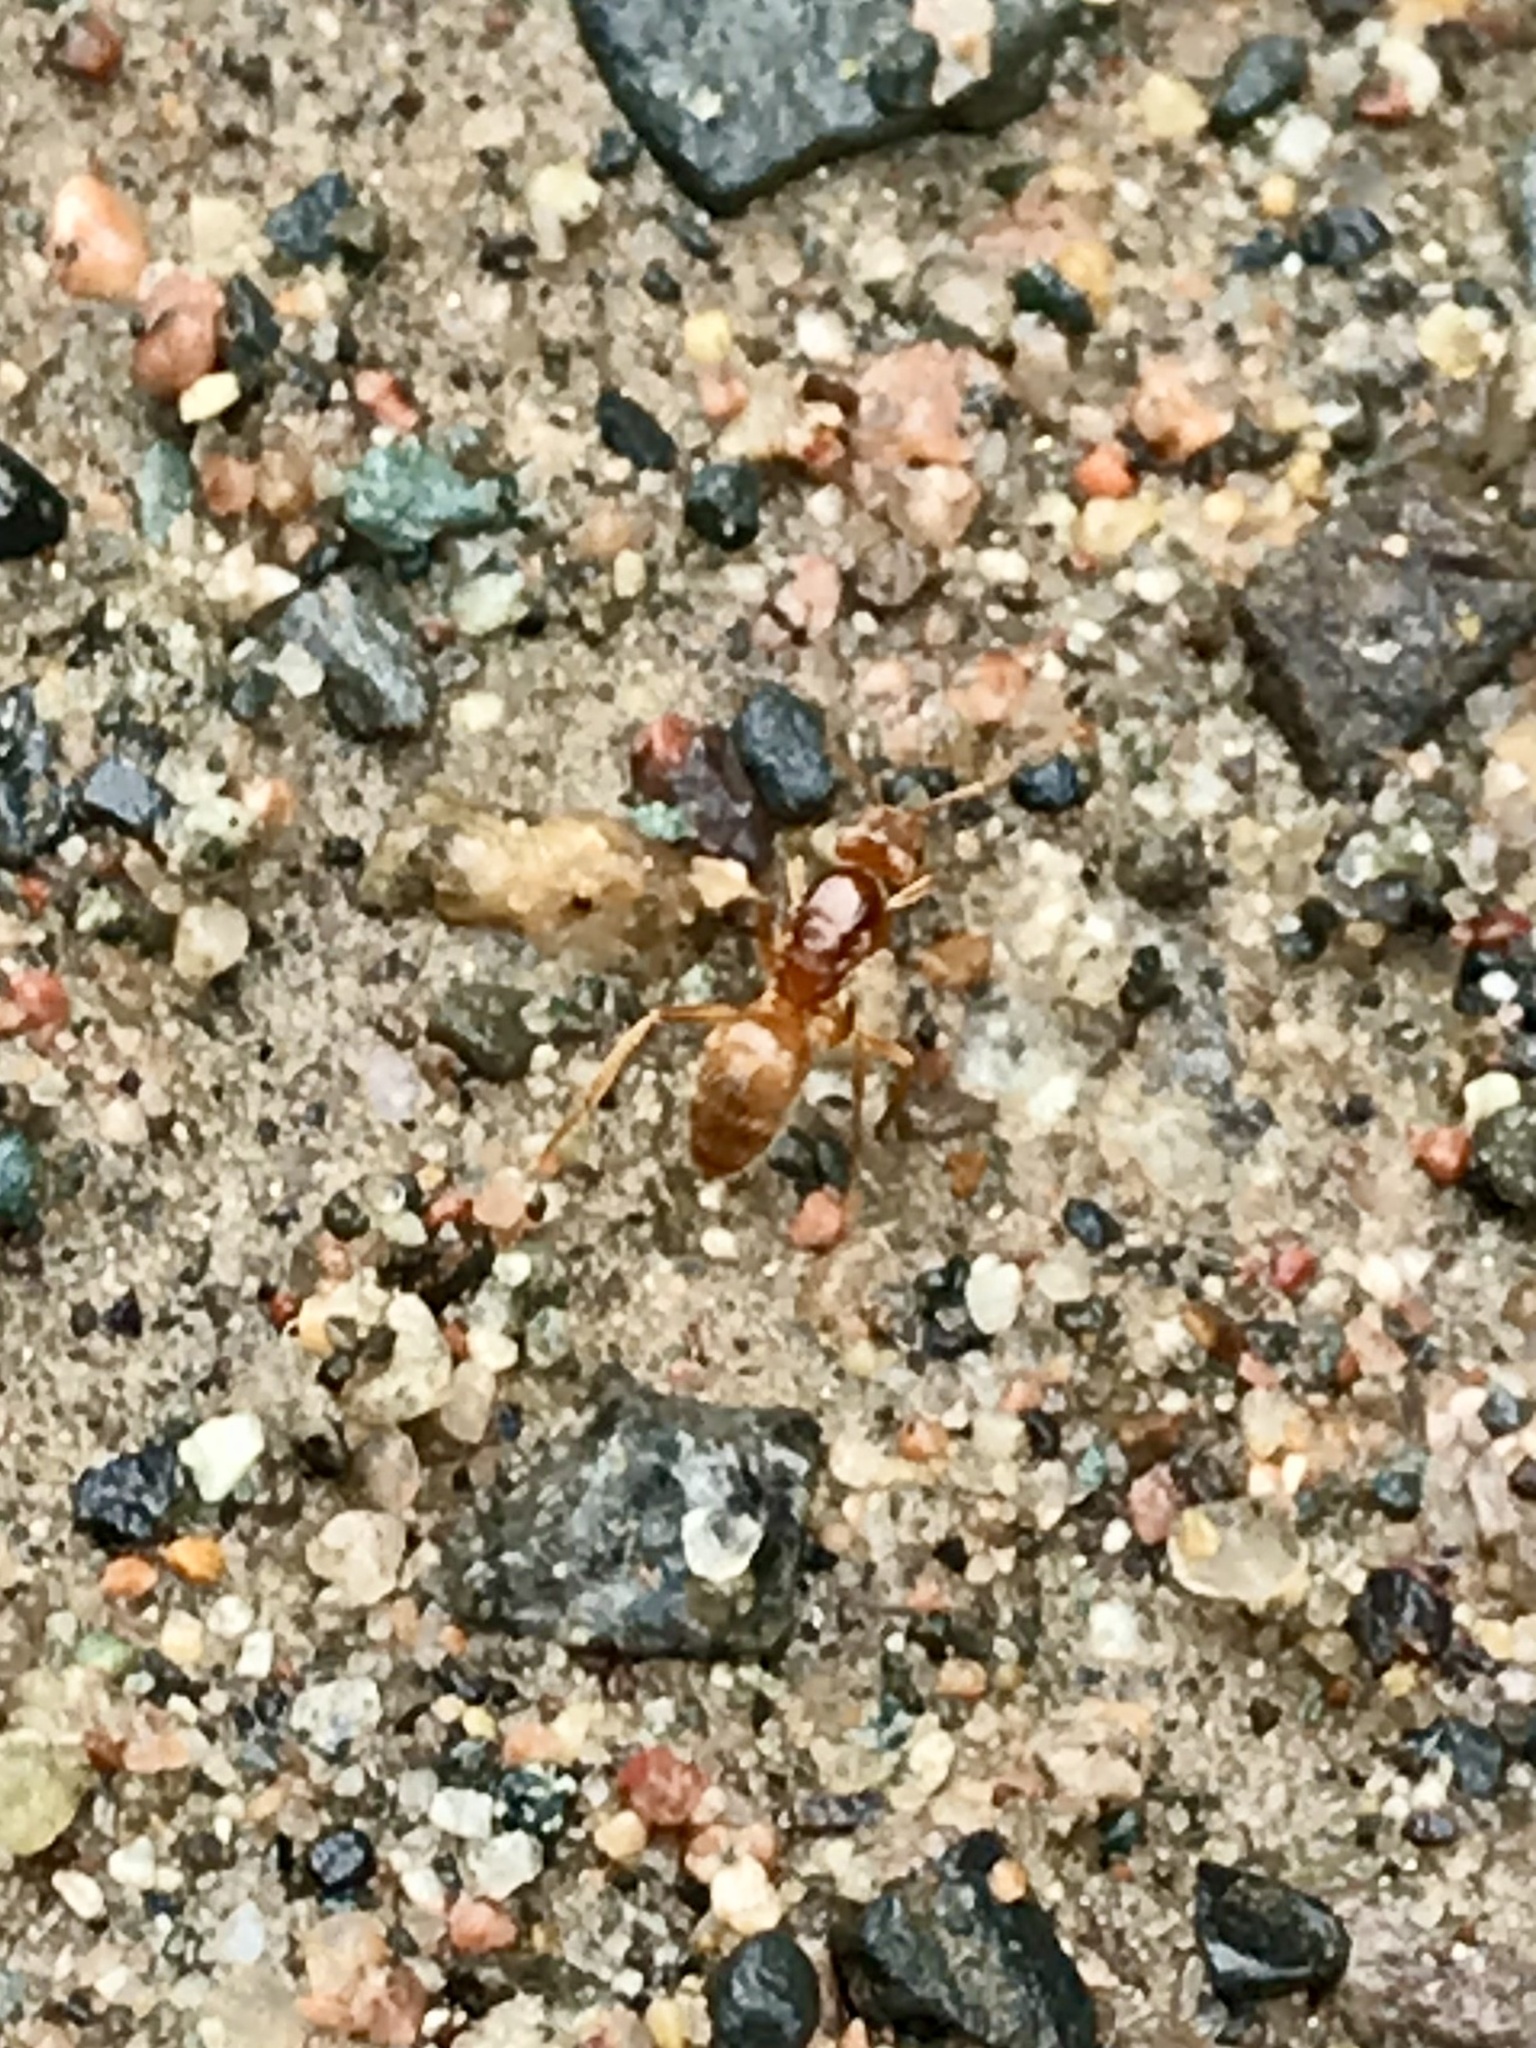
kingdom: Animalia
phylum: Arthropoda
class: Insecta
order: Hymenoptera
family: Formicidae
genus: Lasius
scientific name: Lasius subumbratus
